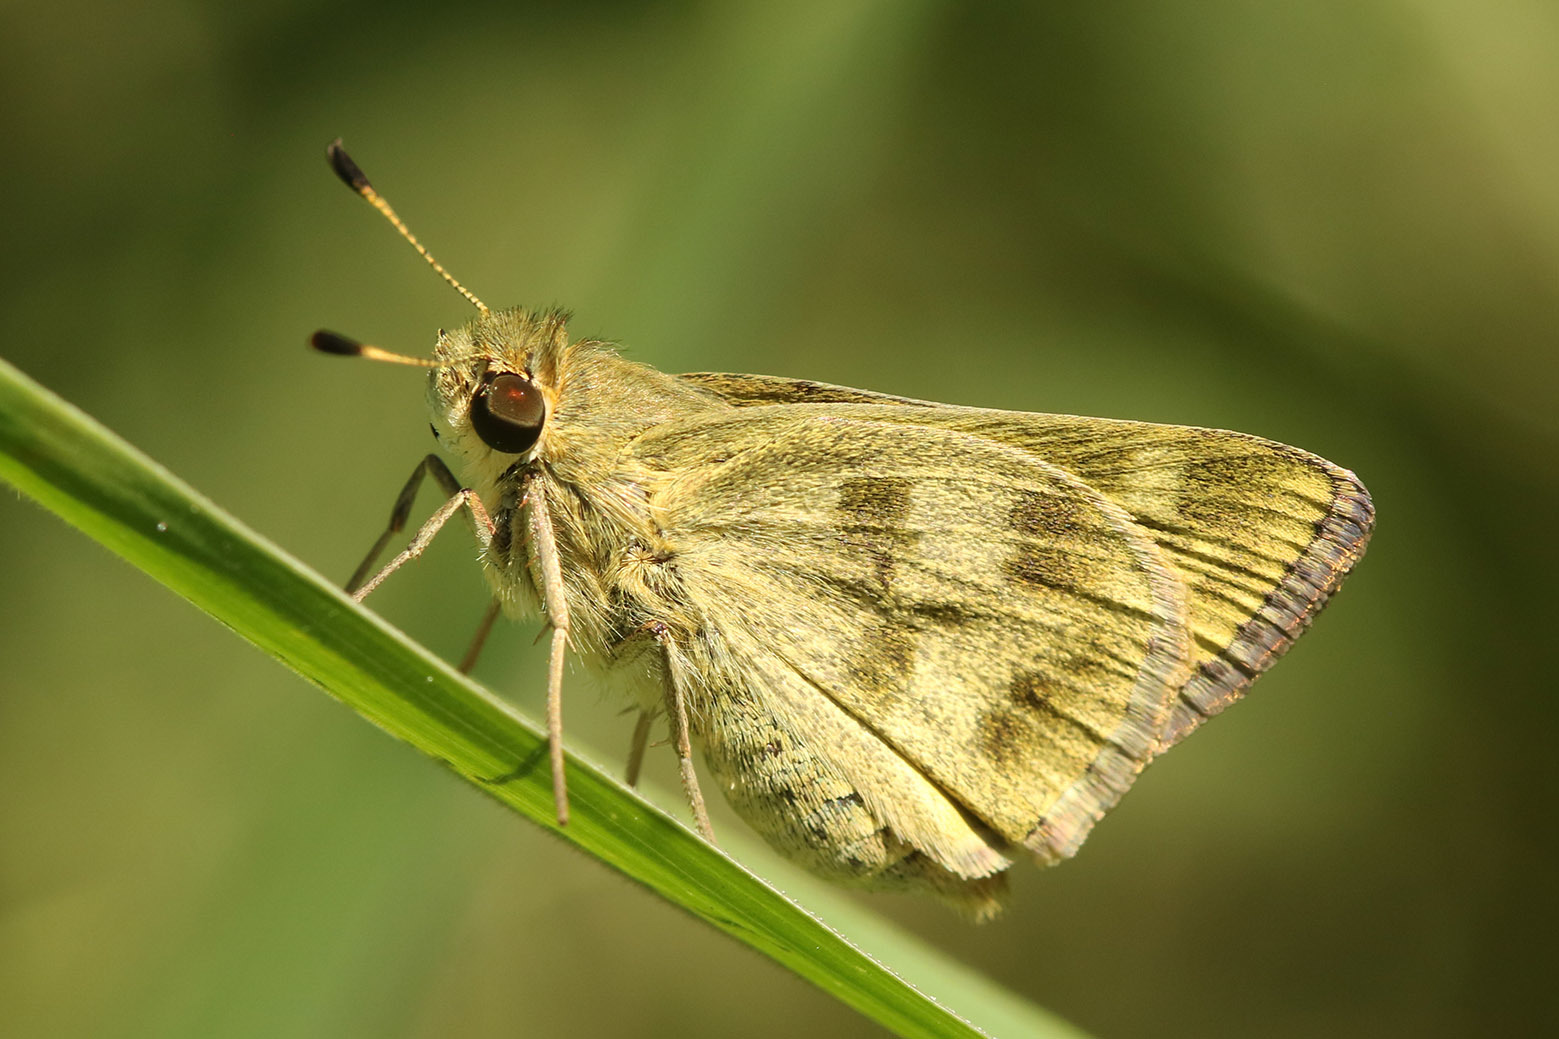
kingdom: Animalia
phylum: Arthropoda
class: Insecta
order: Lepidoptera
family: Hesperiidae
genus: Polites
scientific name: Polites vibex
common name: Whirlabout
